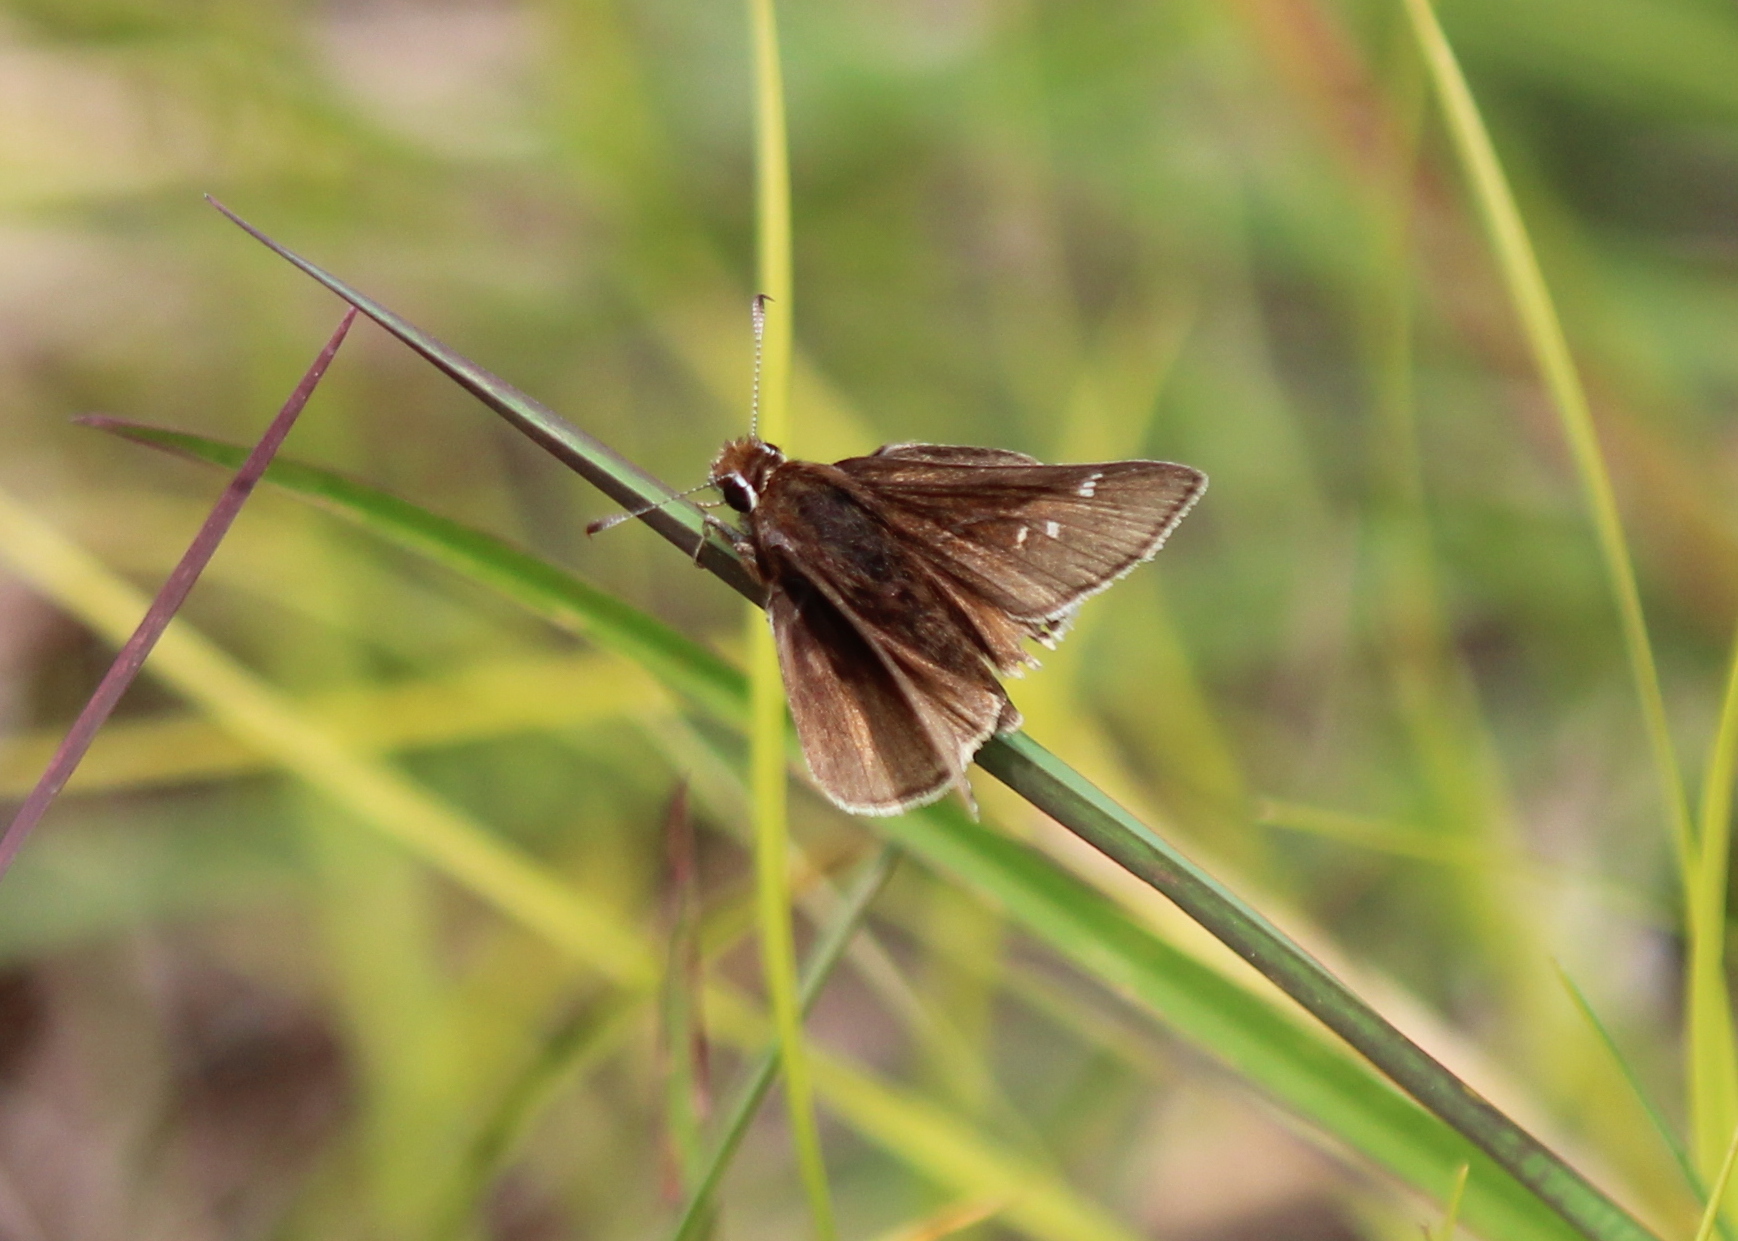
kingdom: Animalia
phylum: Arthropoda
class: Insecta
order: Lepidoptera
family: Hesperiidae
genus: Atrytonopsis
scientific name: Atrytonopsis hianna
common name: Dusted skipper
